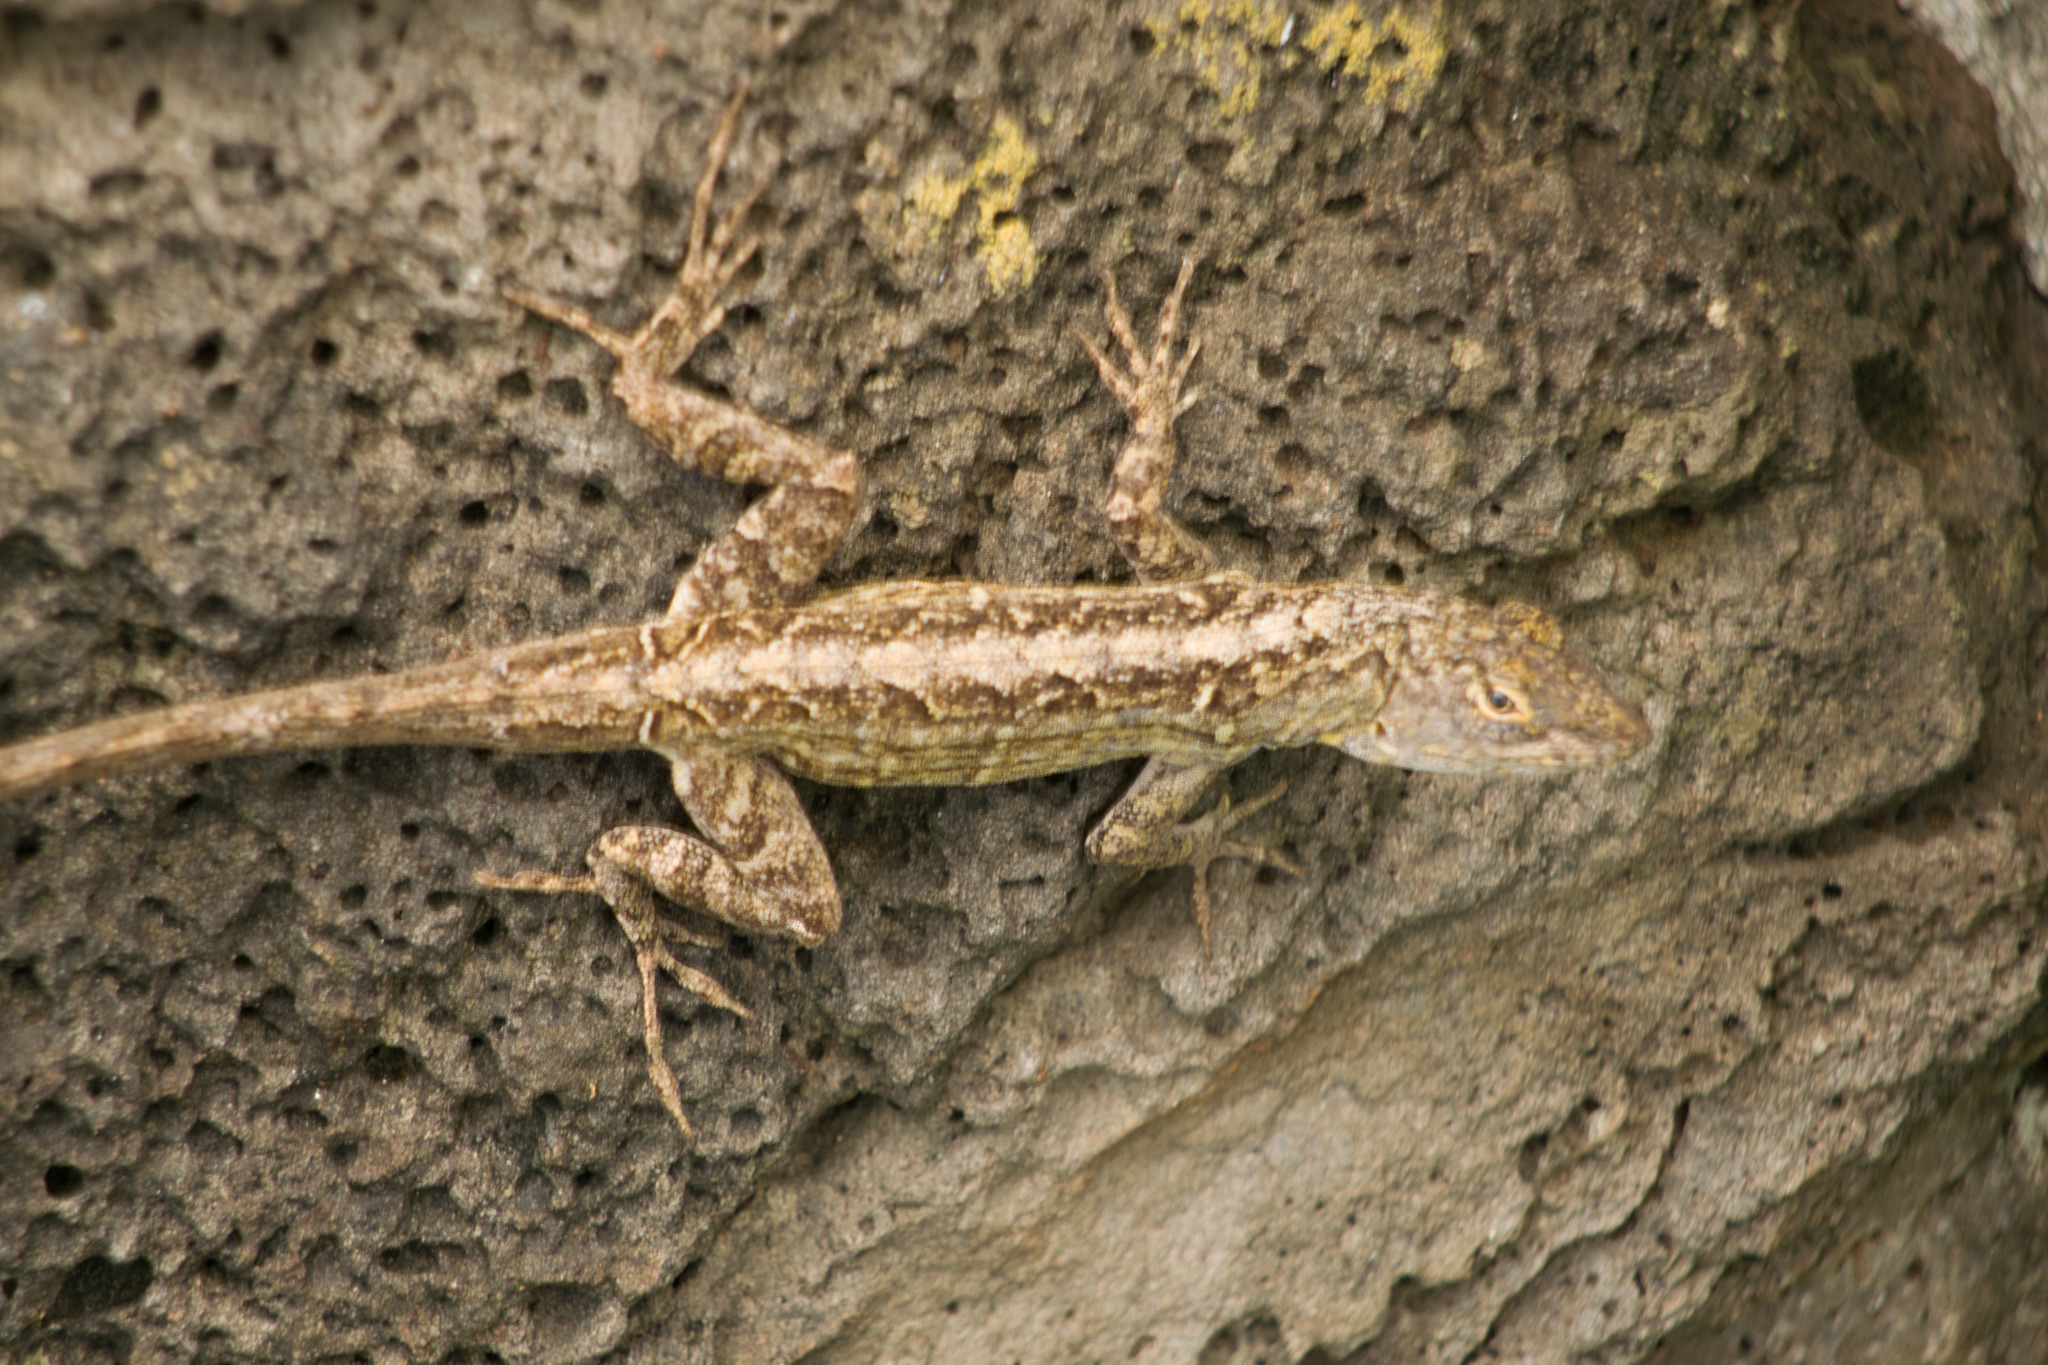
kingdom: Animalia
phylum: Chordata
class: Squamata
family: Dactyloidae
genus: Anolis
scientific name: Anolis sagrei
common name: Brown anole
